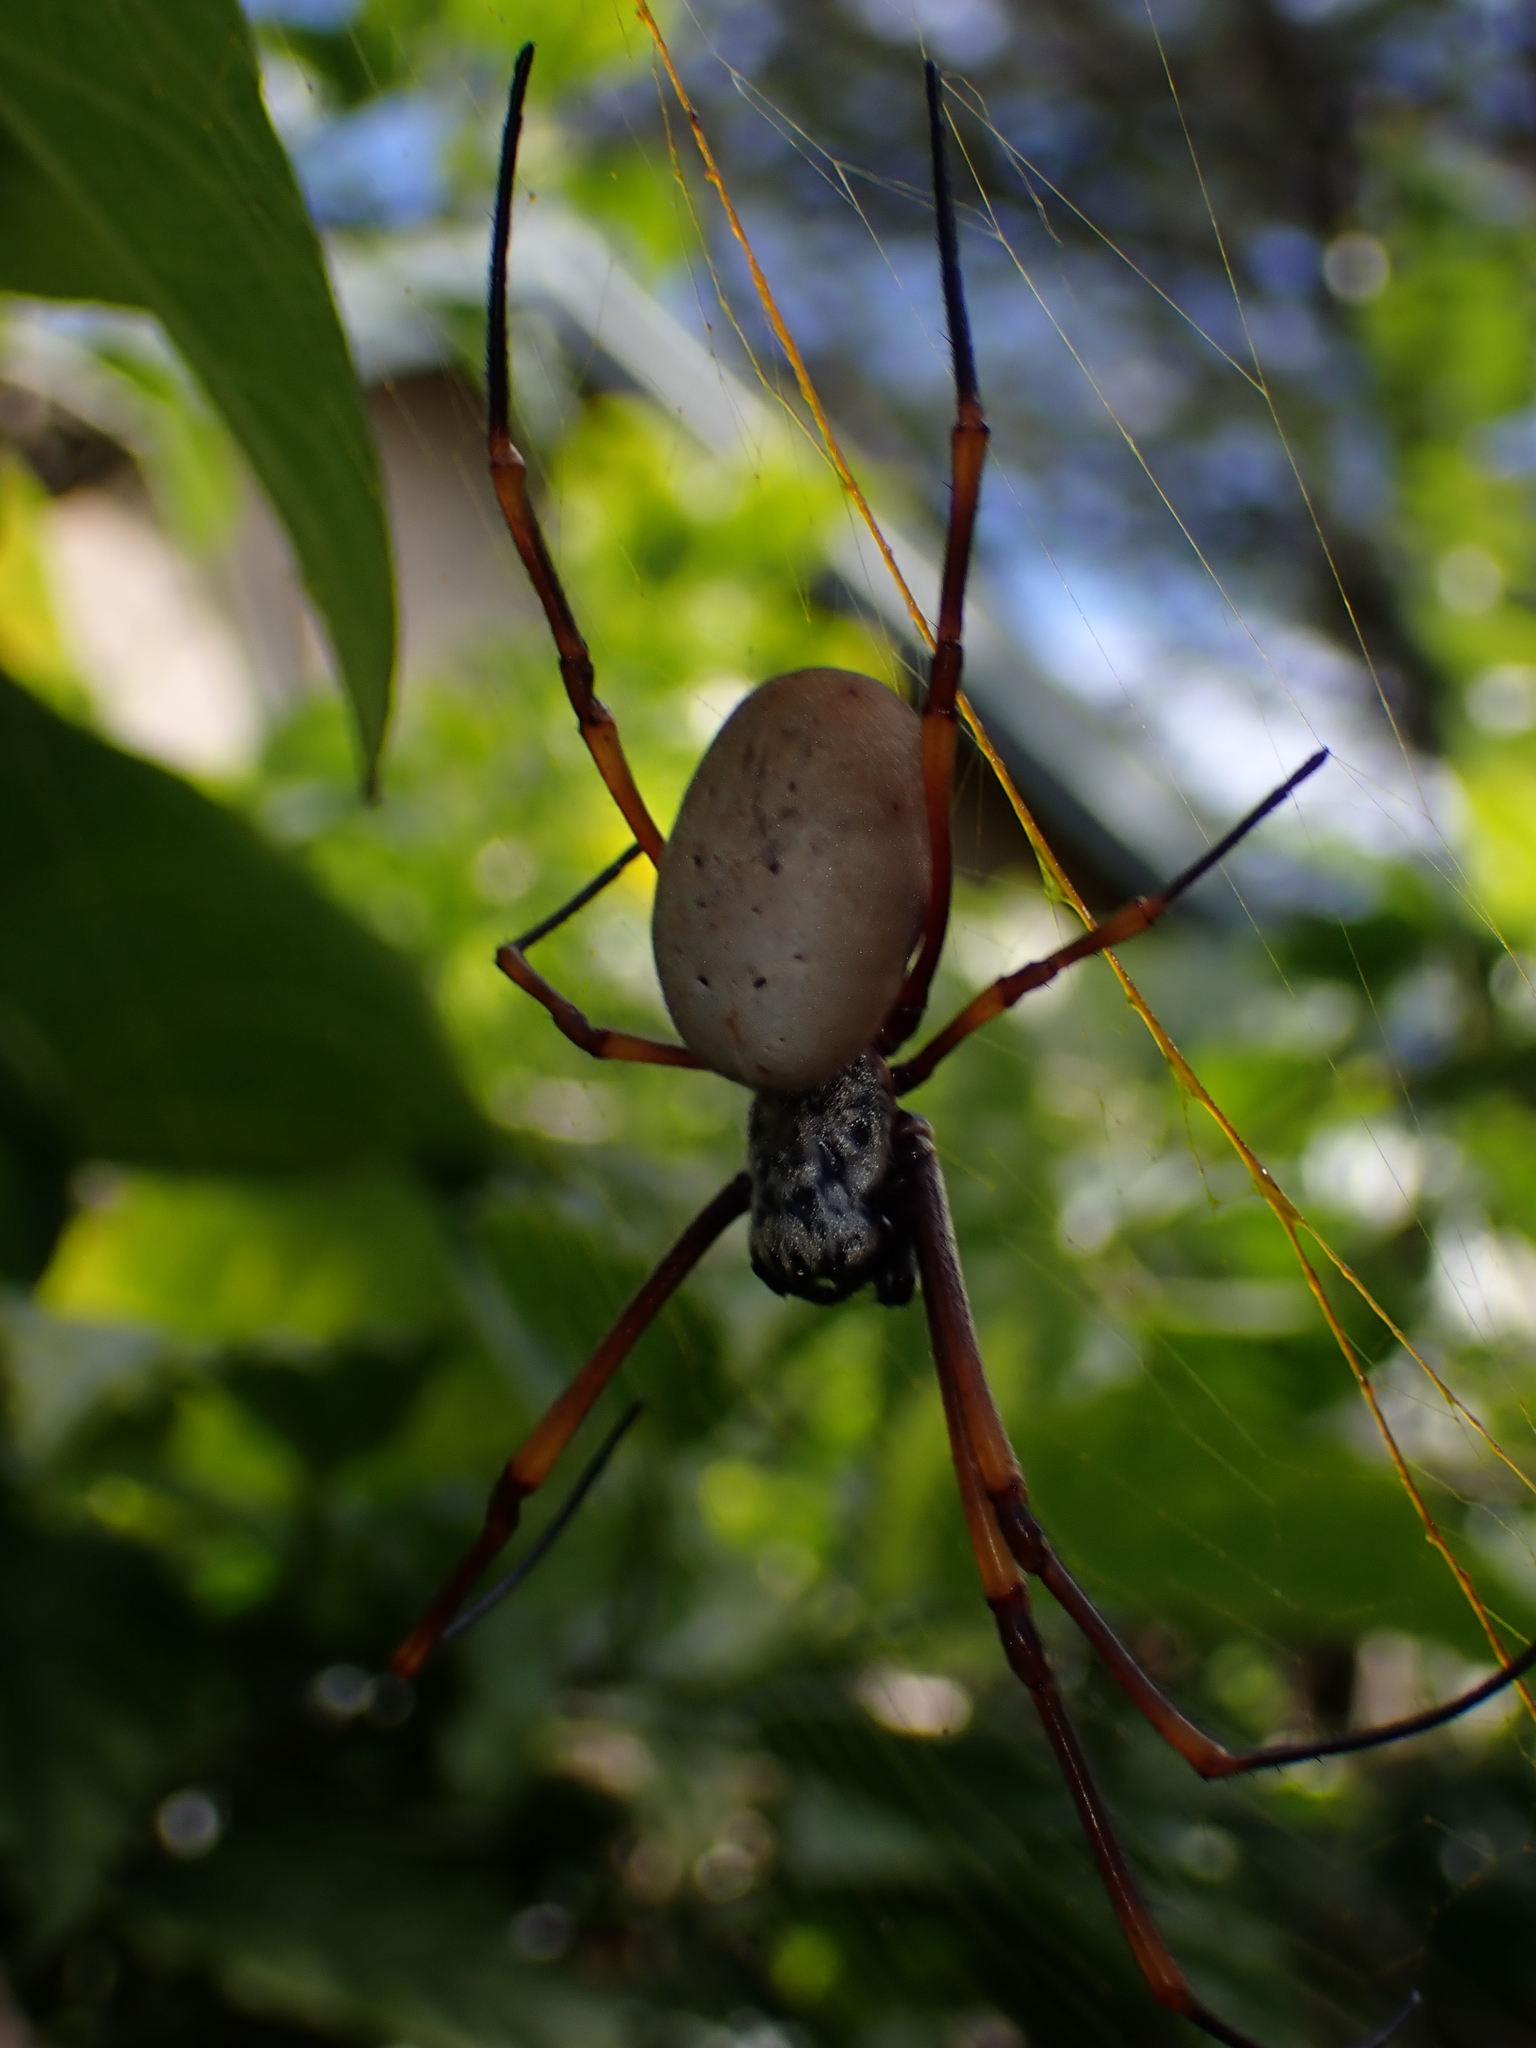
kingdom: Animalia
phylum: Arthropoda
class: Arachnida
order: Araneae
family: Araneidae
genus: Trichonephila
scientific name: Trichonephila plumipes
